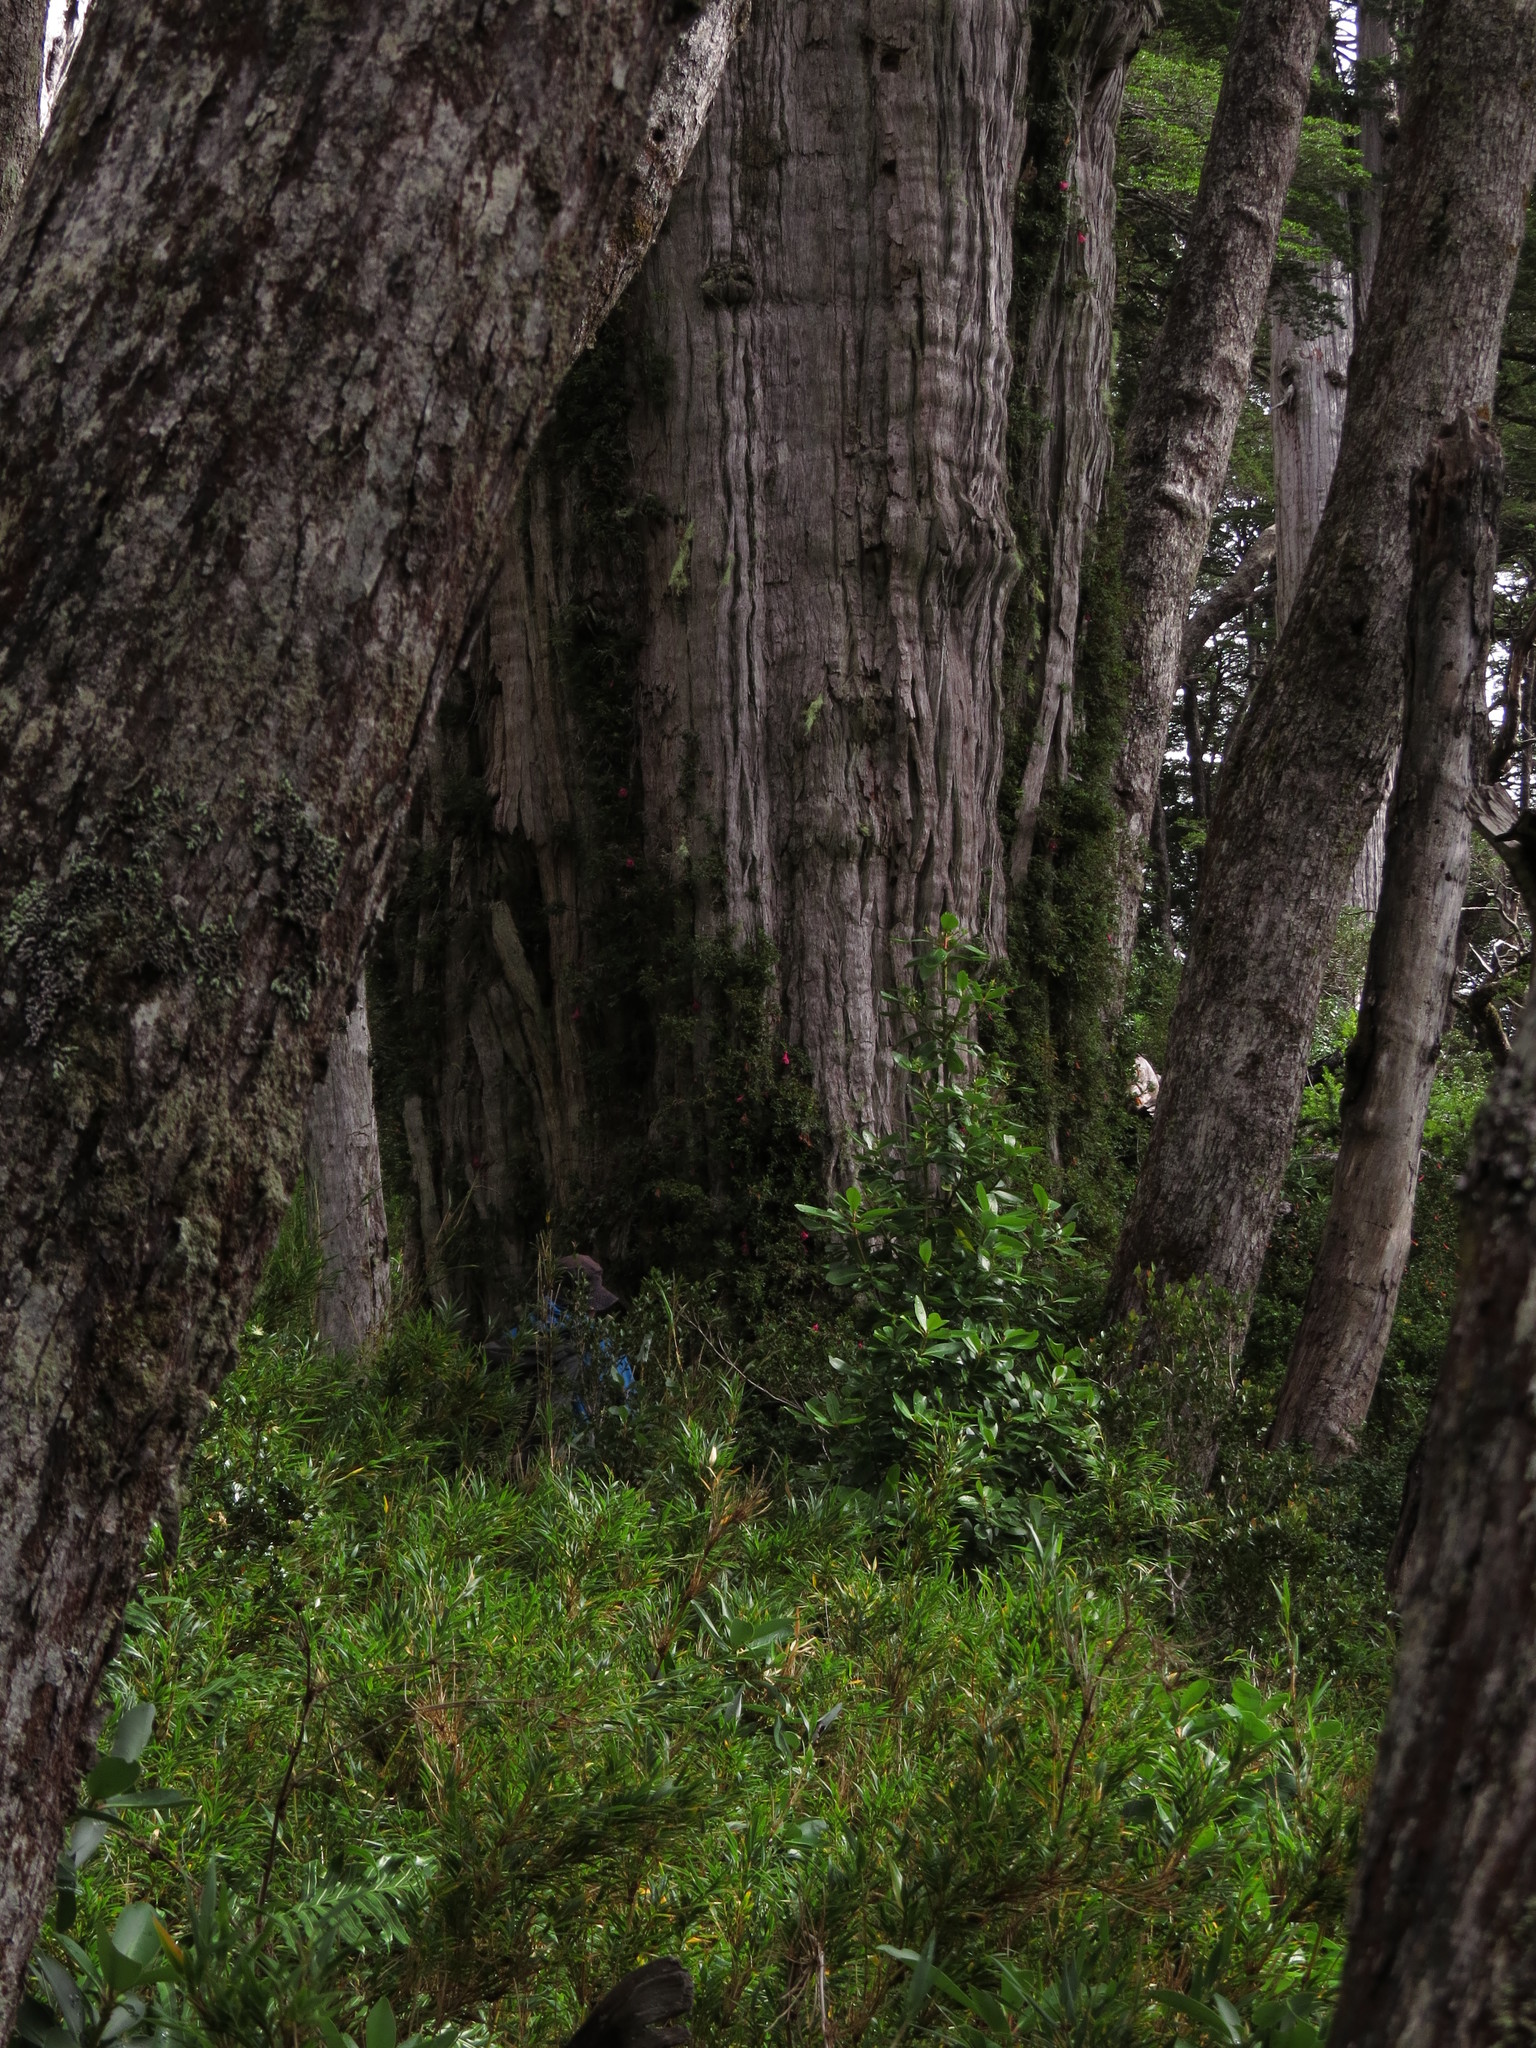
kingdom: Plantae
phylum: Tracheophyta
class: Pinopsida
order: Pinales
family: Cupressaceae
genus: Fitzroya
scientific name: Fitzroya cupressoides
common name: Patagonian cypress
